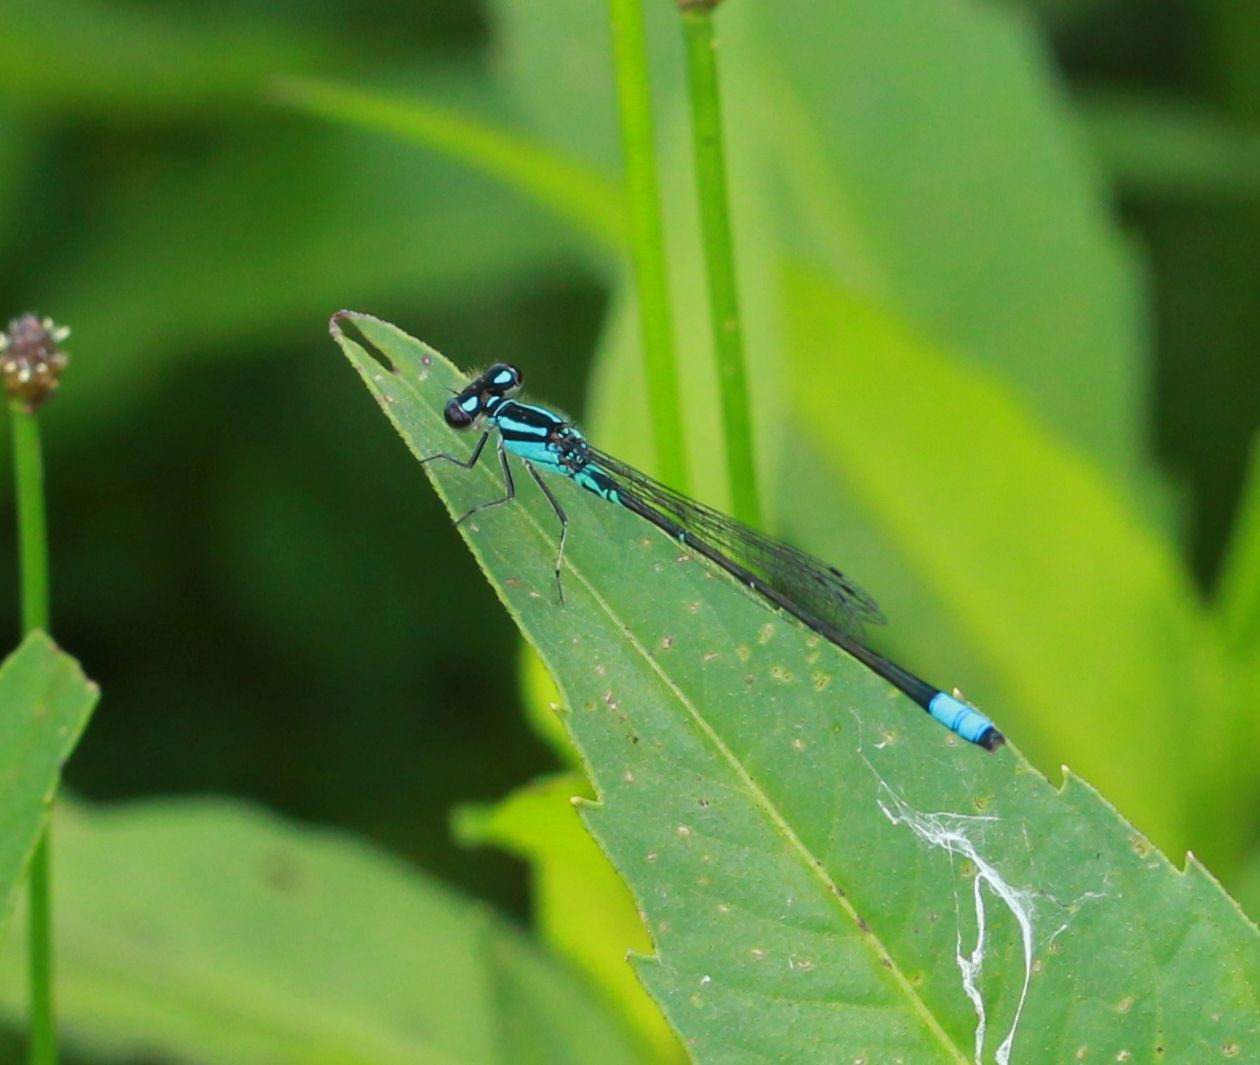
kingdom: Animalia
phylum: Arthropoda
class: Insecta
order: Odonata
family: Coenagrionidae
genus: Enallagma
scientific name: Enallagma geminatum
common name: Skimming bluet
